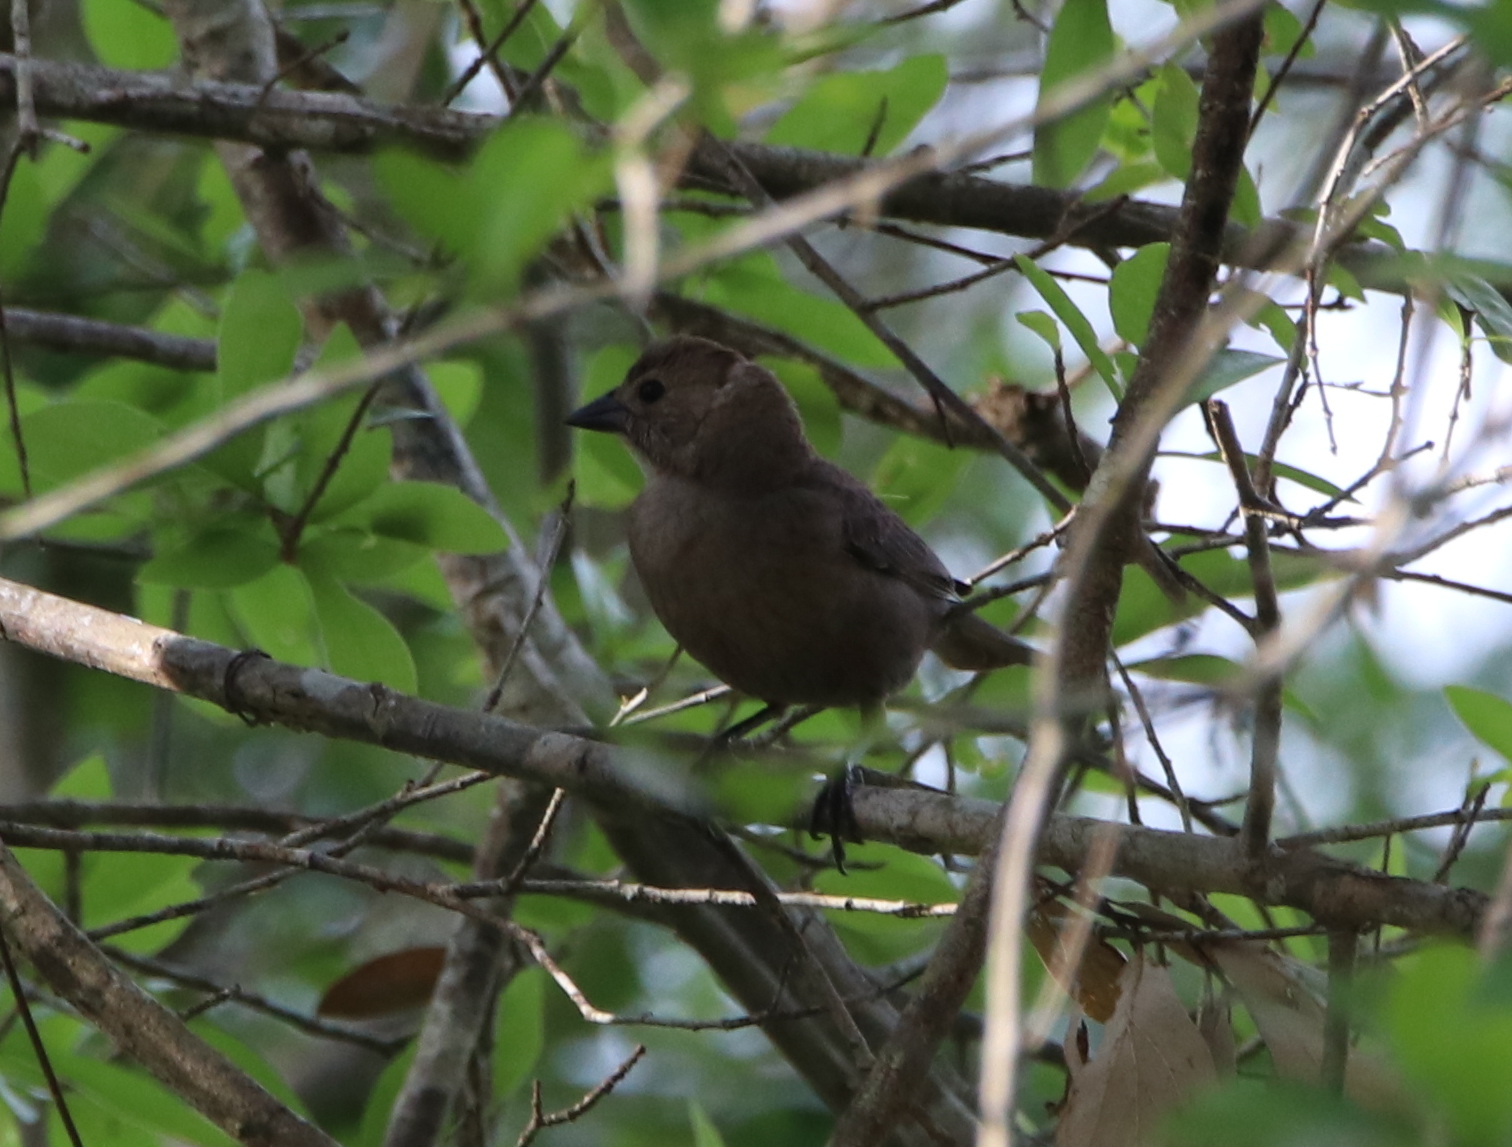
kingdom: Animalia
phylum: Chordata
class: Aves
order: Passeriformes
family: Icteridae
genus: Molothrus
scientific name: Molothrus ater
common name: Brown-headed cowbird
